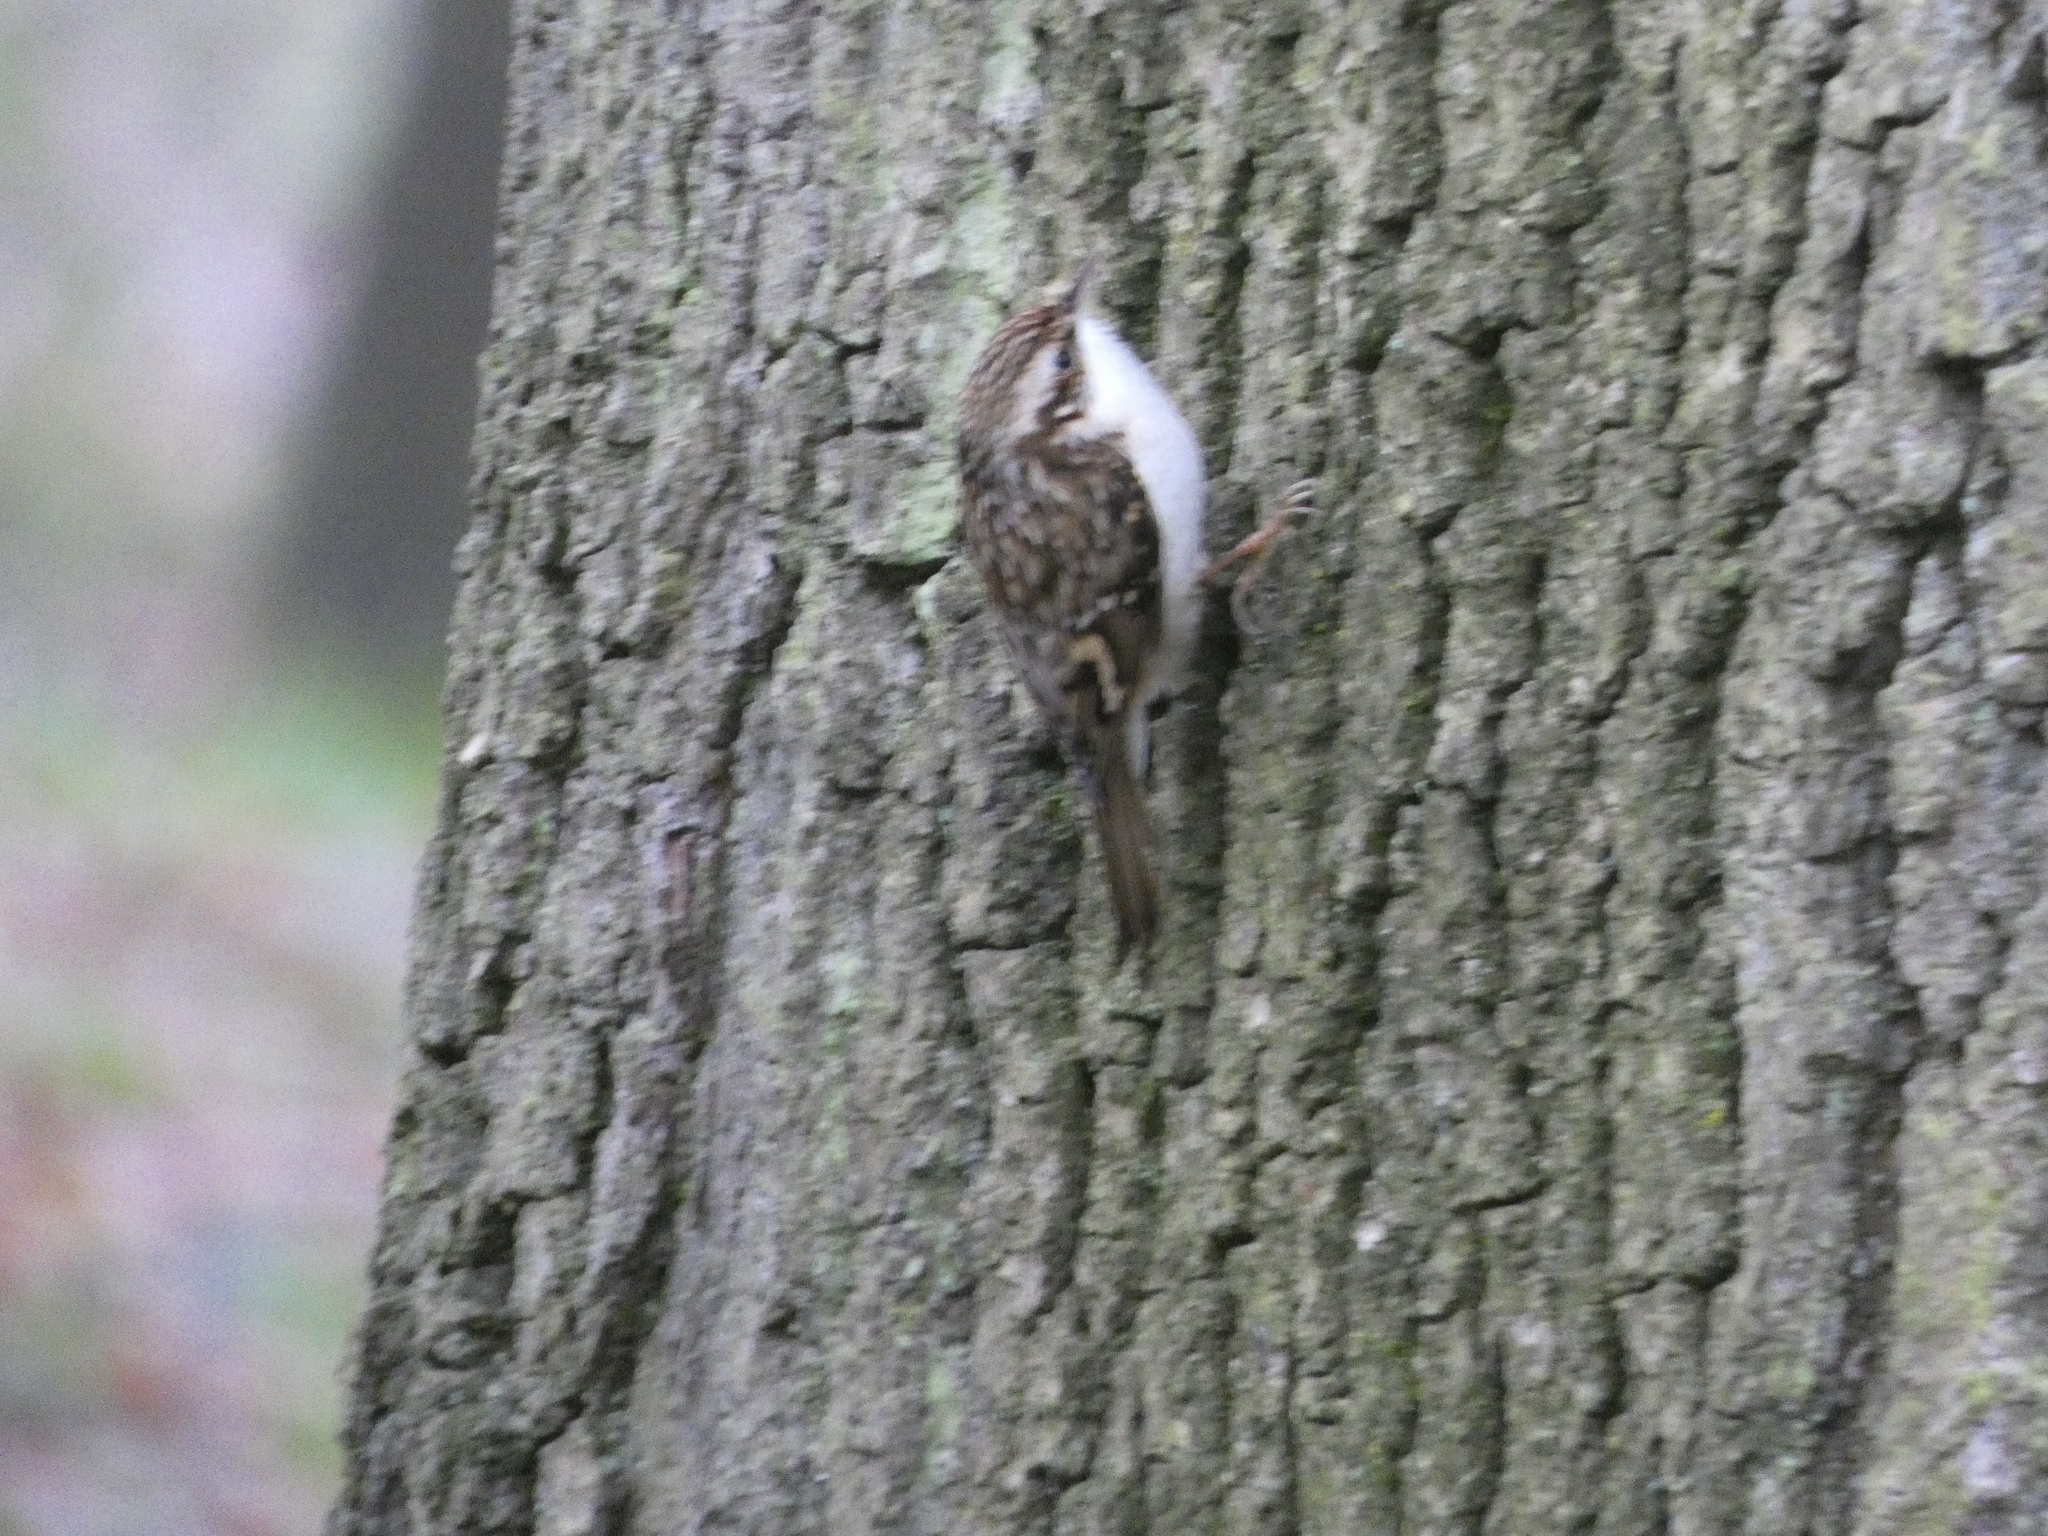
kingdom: Animalia
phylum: Chordata
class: Aves
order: Passeriformes
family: Certhiidae
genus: Certhia
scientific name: Certhia familiaris
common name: Eurasian treecreeper
